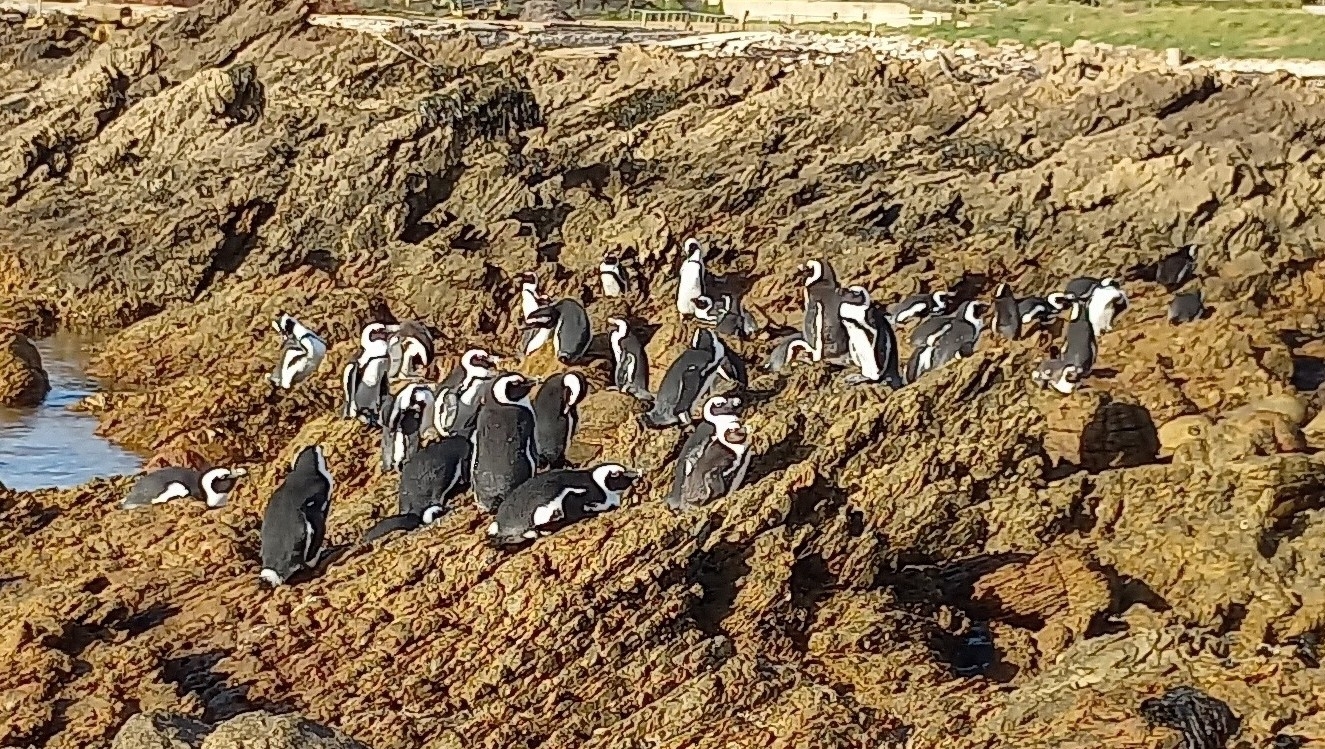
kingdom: Animalia
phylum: Chordata
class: Aves
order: Sphenisciformes
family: Spheniscidae
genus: Spheniscus
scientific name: Spheniscus demersus
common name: African penguin
